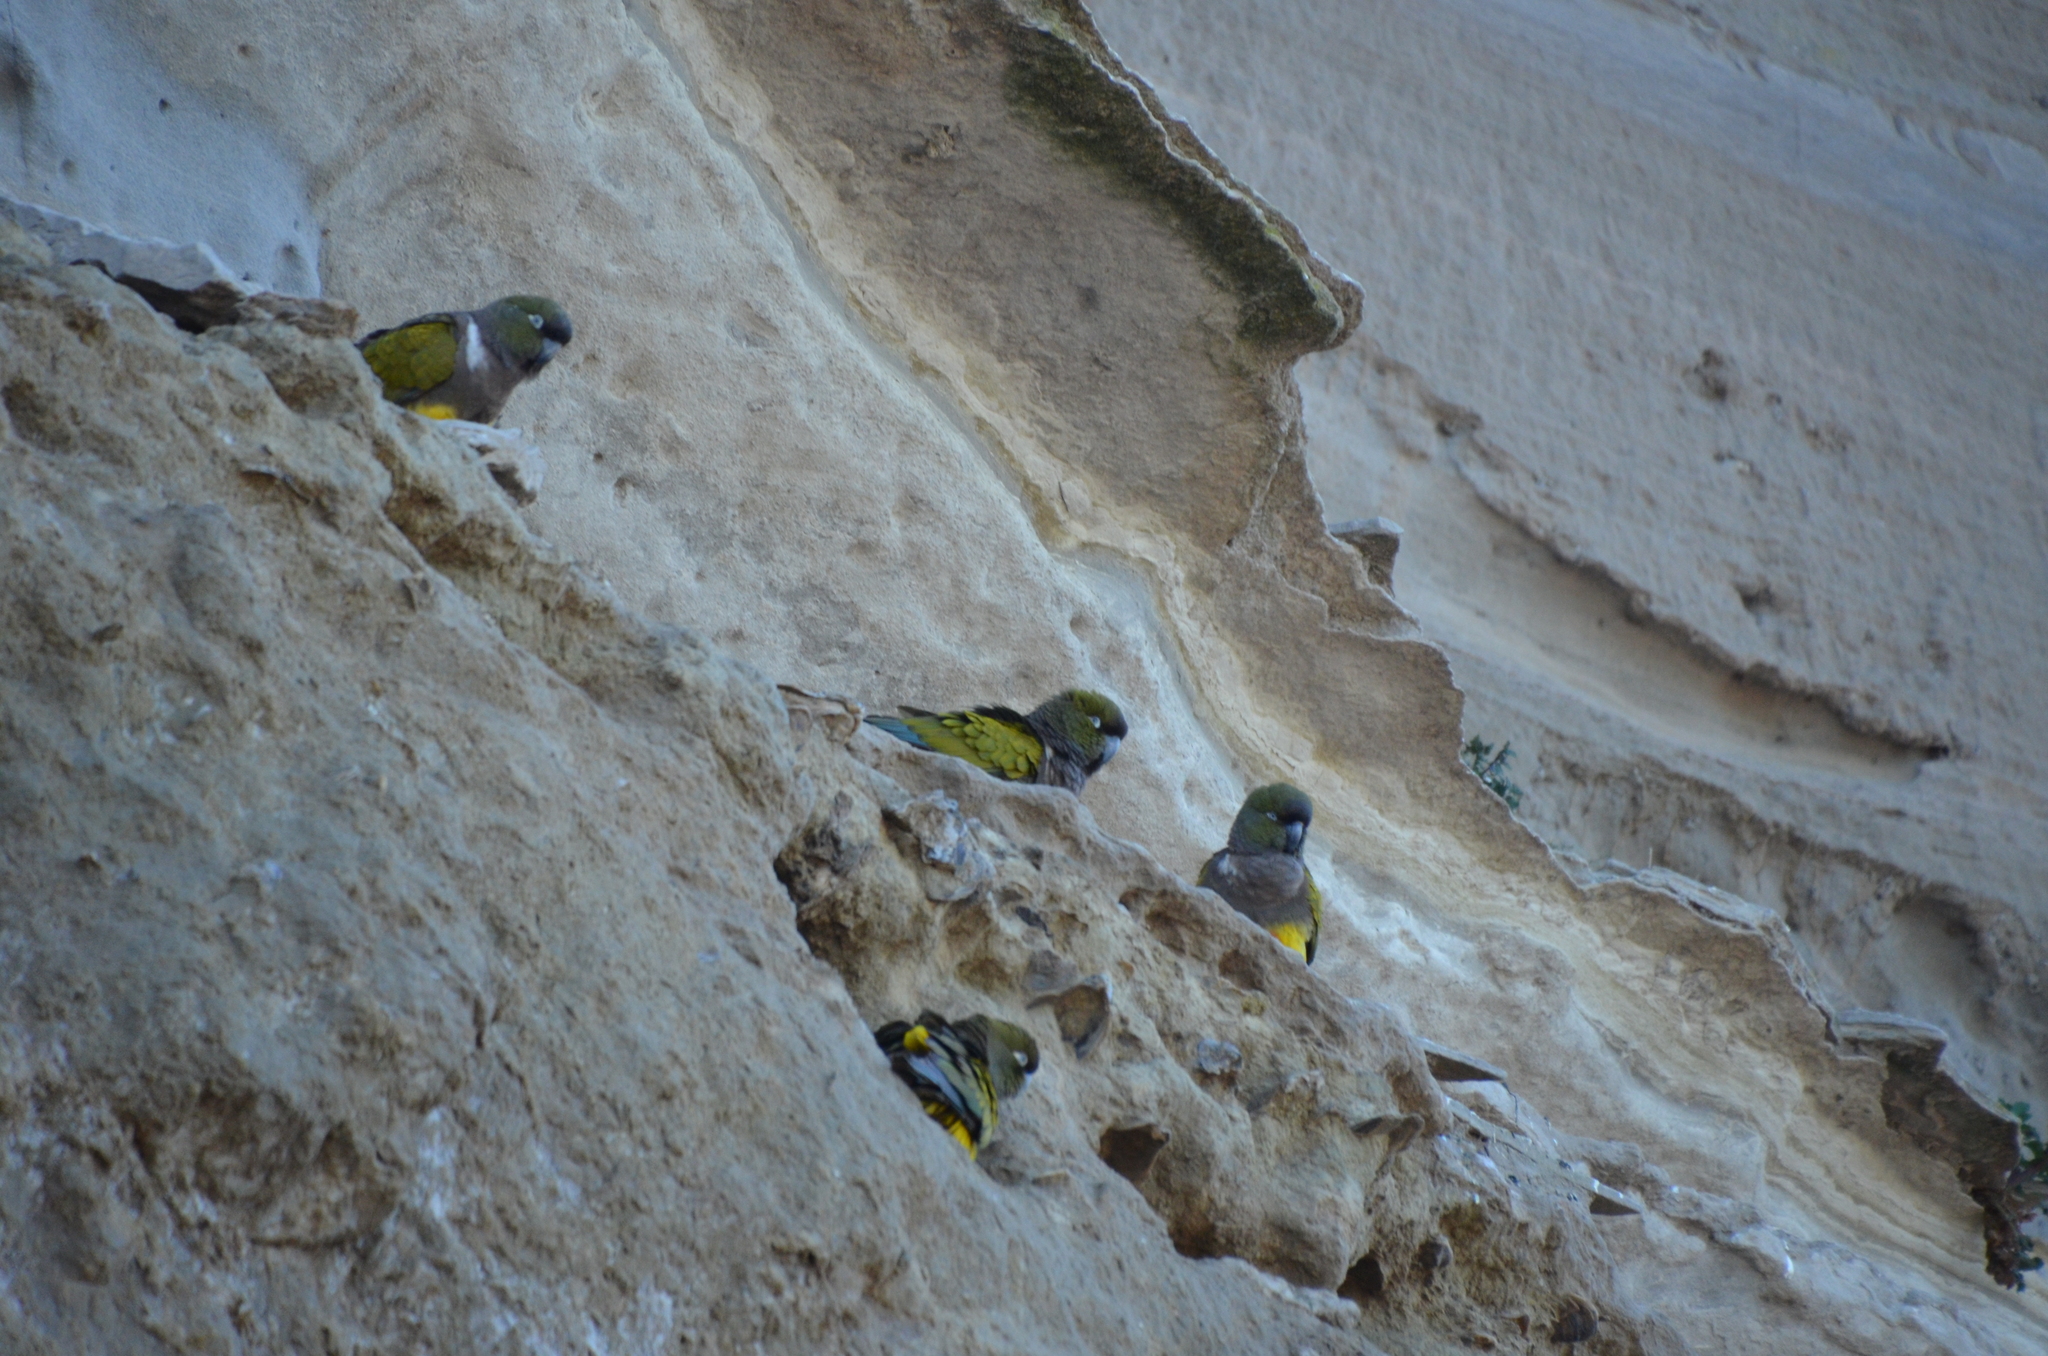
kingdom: Animalia
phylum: Chordata
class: Aves
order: Psittaciformes
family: Psittacidae
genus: Cyanoliseus
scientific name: Cyanoliseus patagonus
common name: Burrowing parrot
